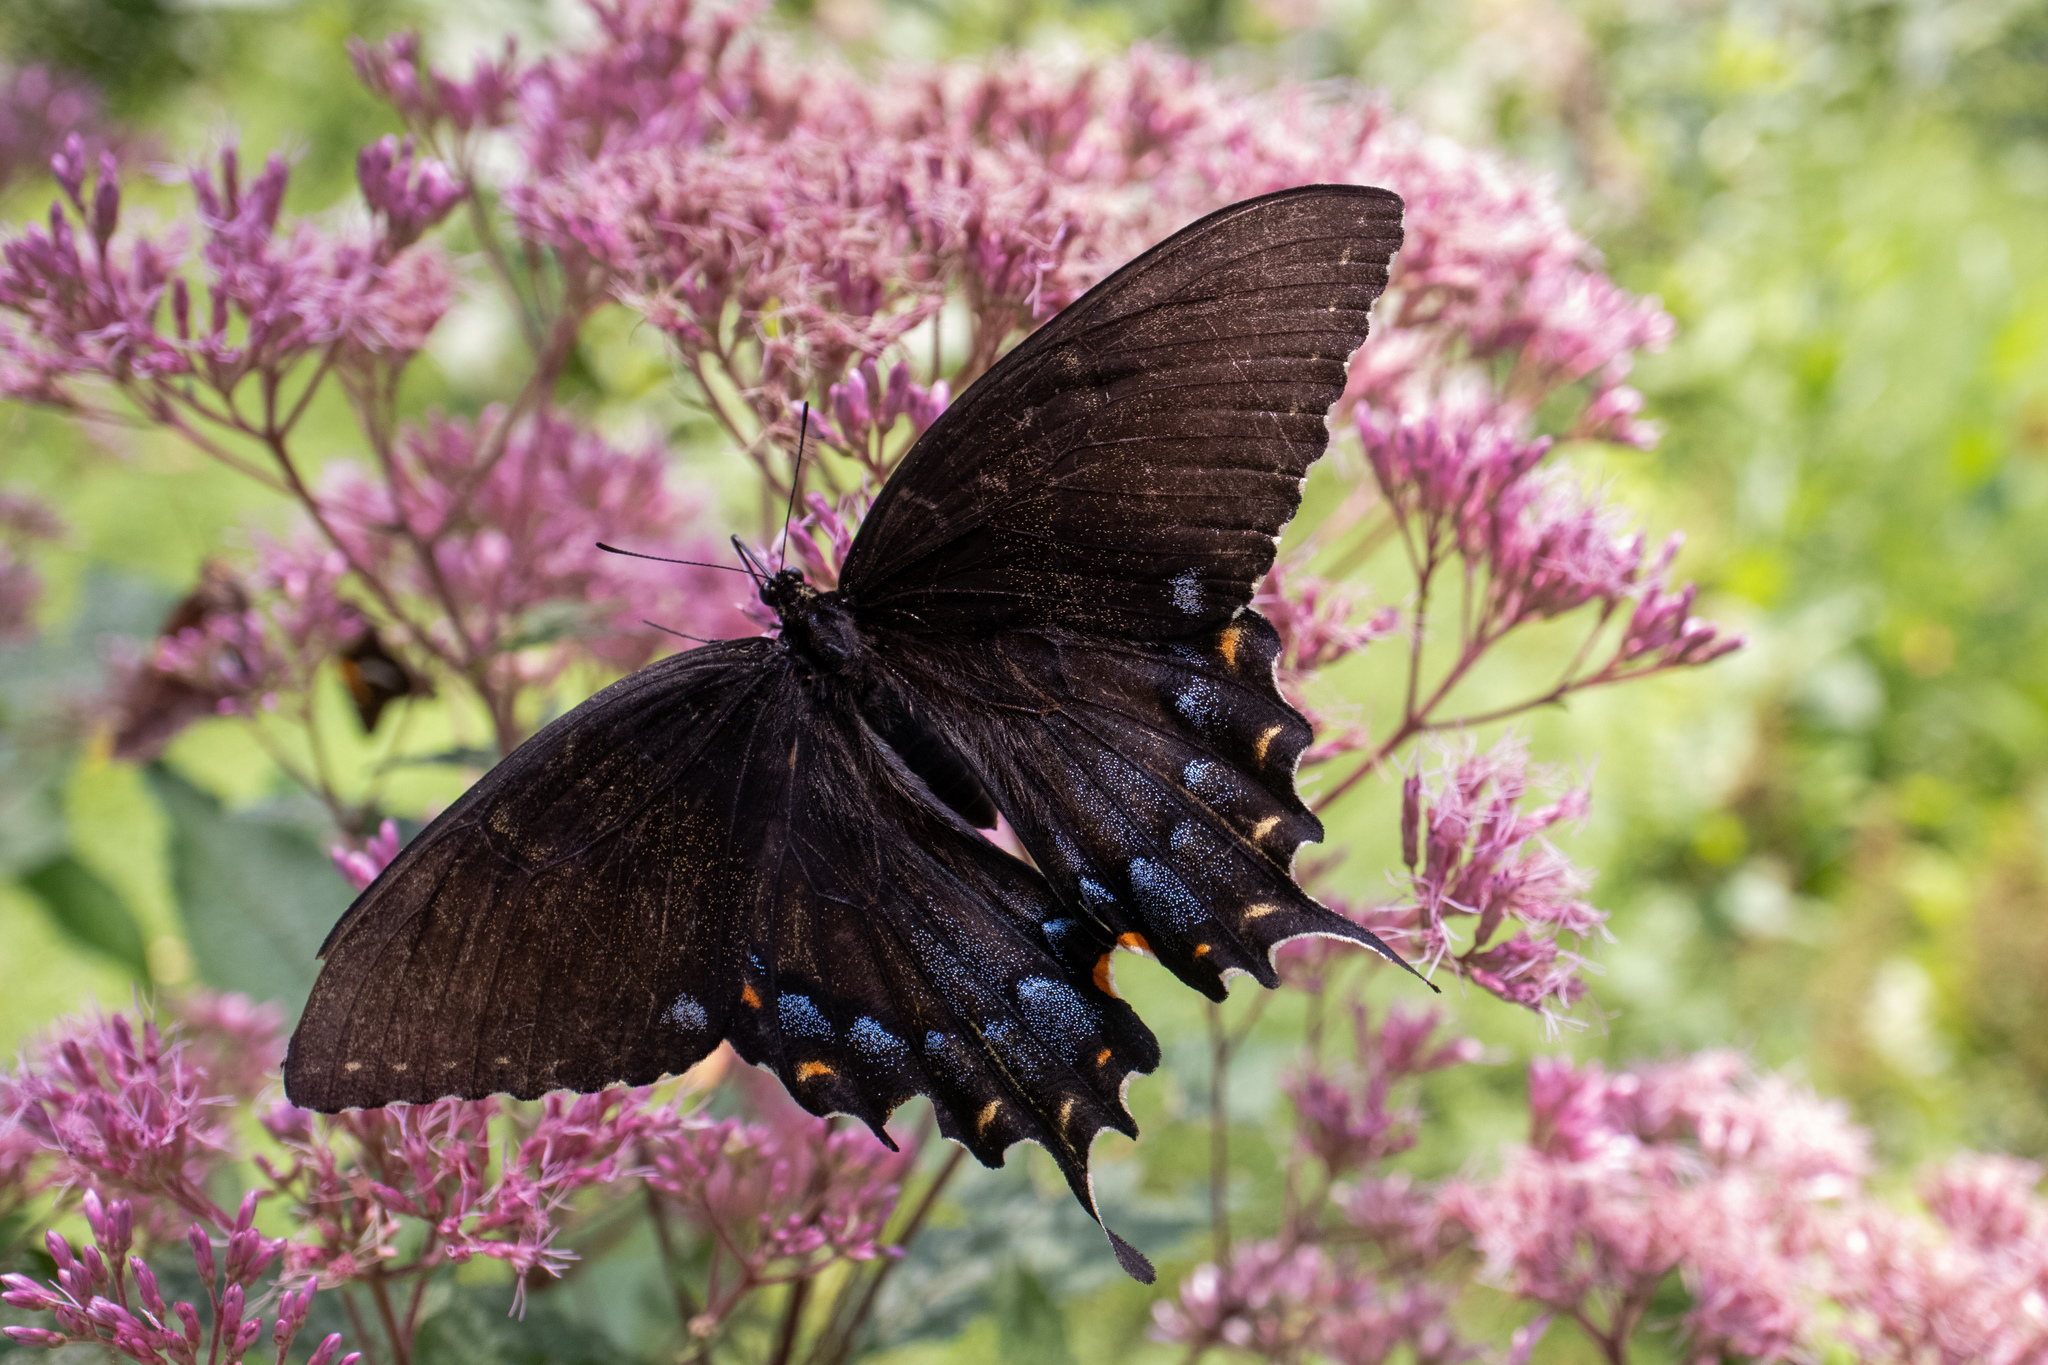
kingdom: Animalia
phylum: Arthropoda
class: Insecta
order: Lepidoptera
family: Papilionidae
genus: Papilio
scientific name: Papilio glaucus
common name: Tiger swallowtail
